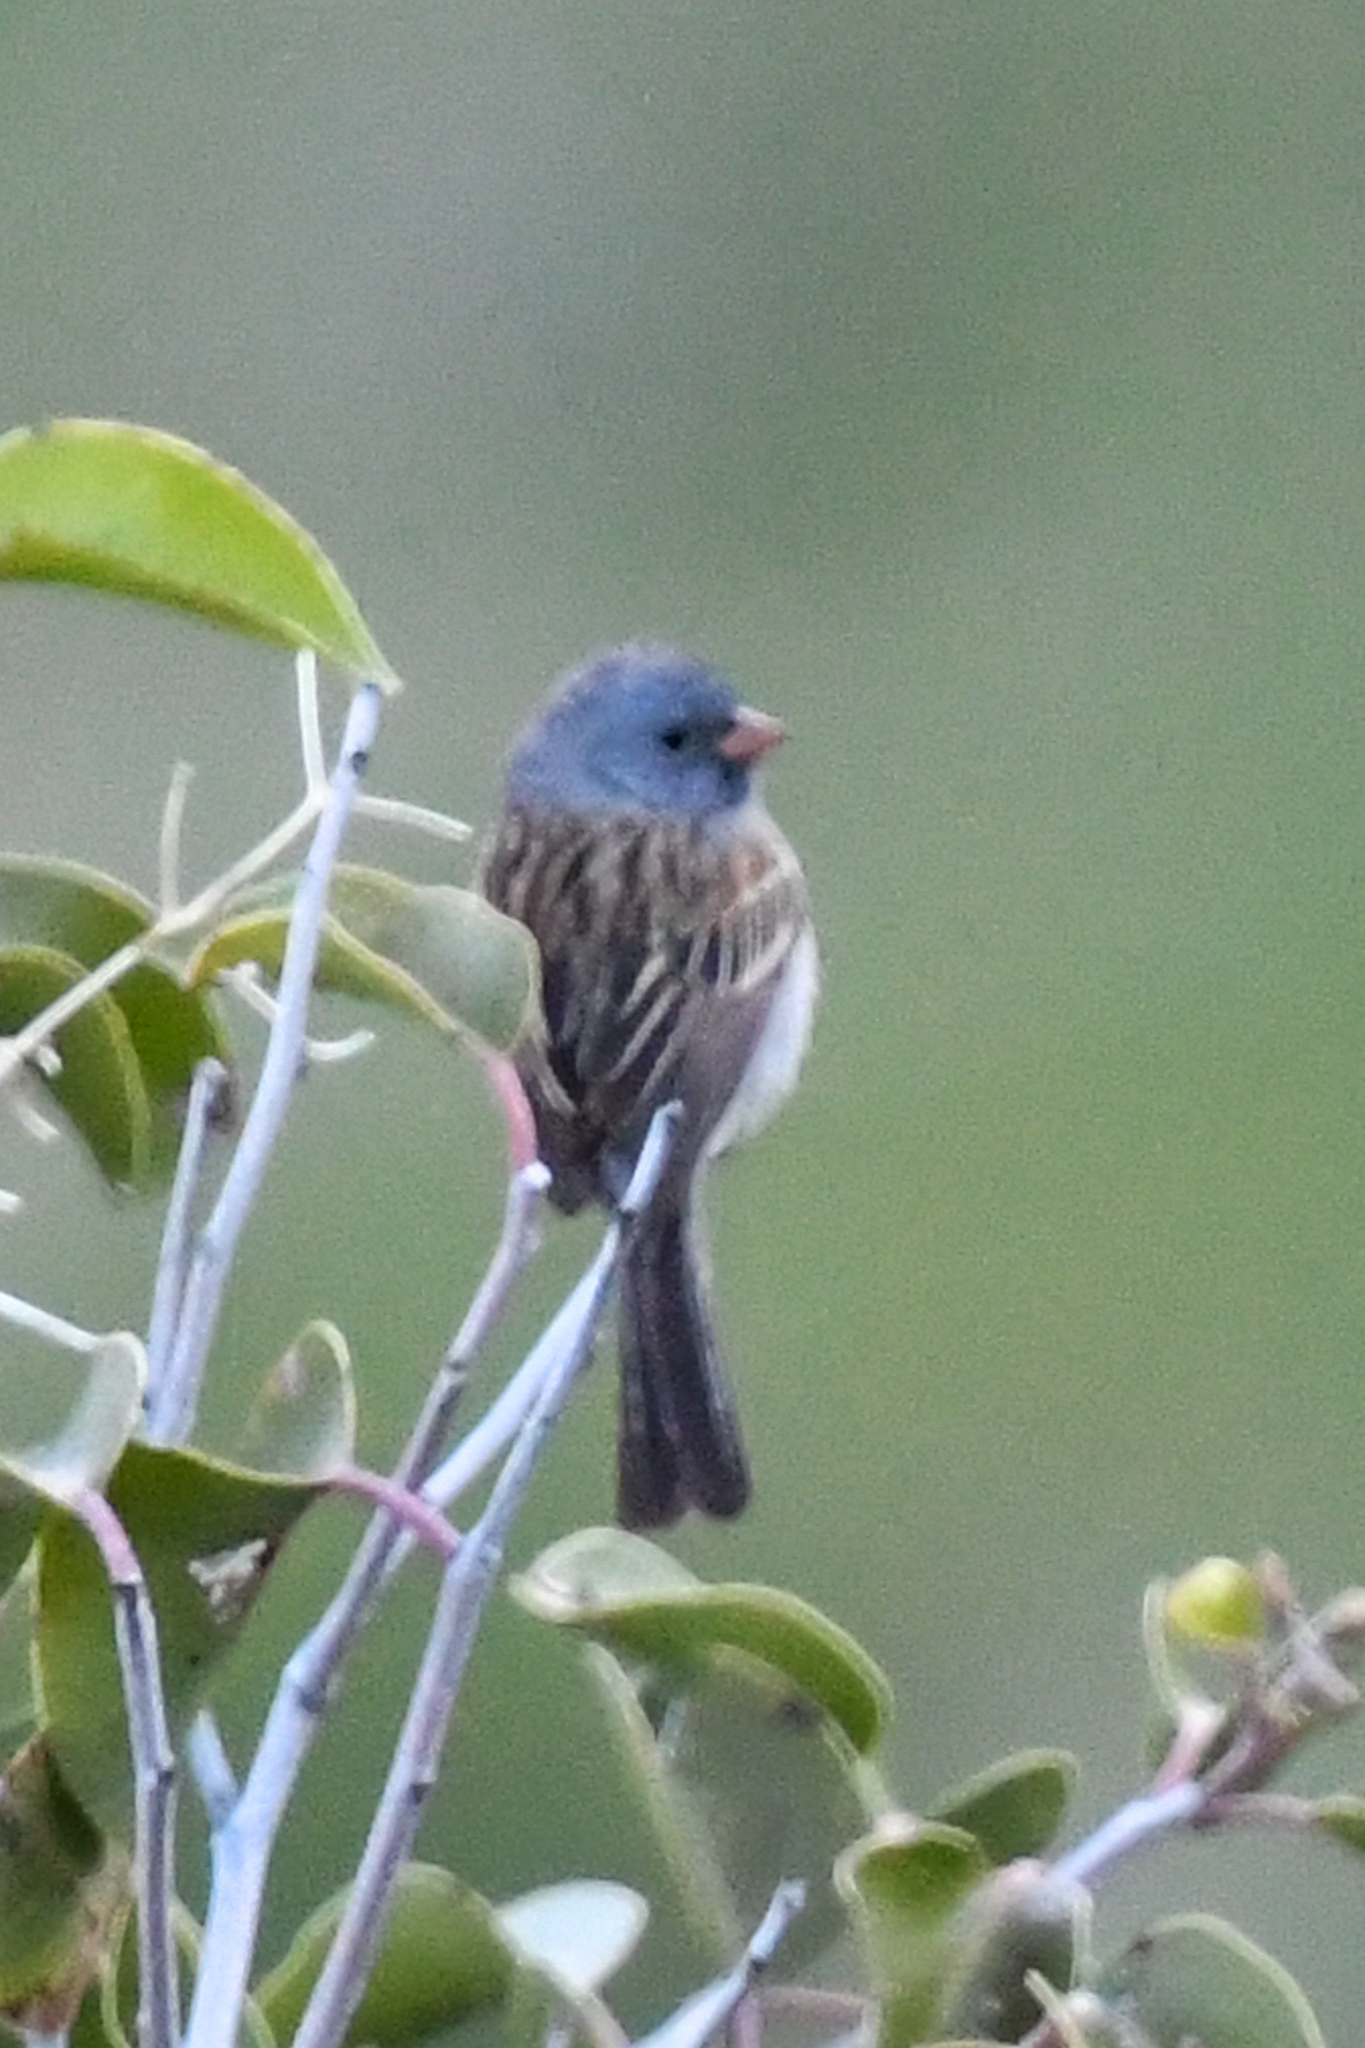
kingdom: Animalia
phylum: Chordata
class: Aves
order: Passeriformes
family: Passerellidae
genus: Spizella
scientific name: Spizella atrogularis
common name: Black-chinned sparrow
